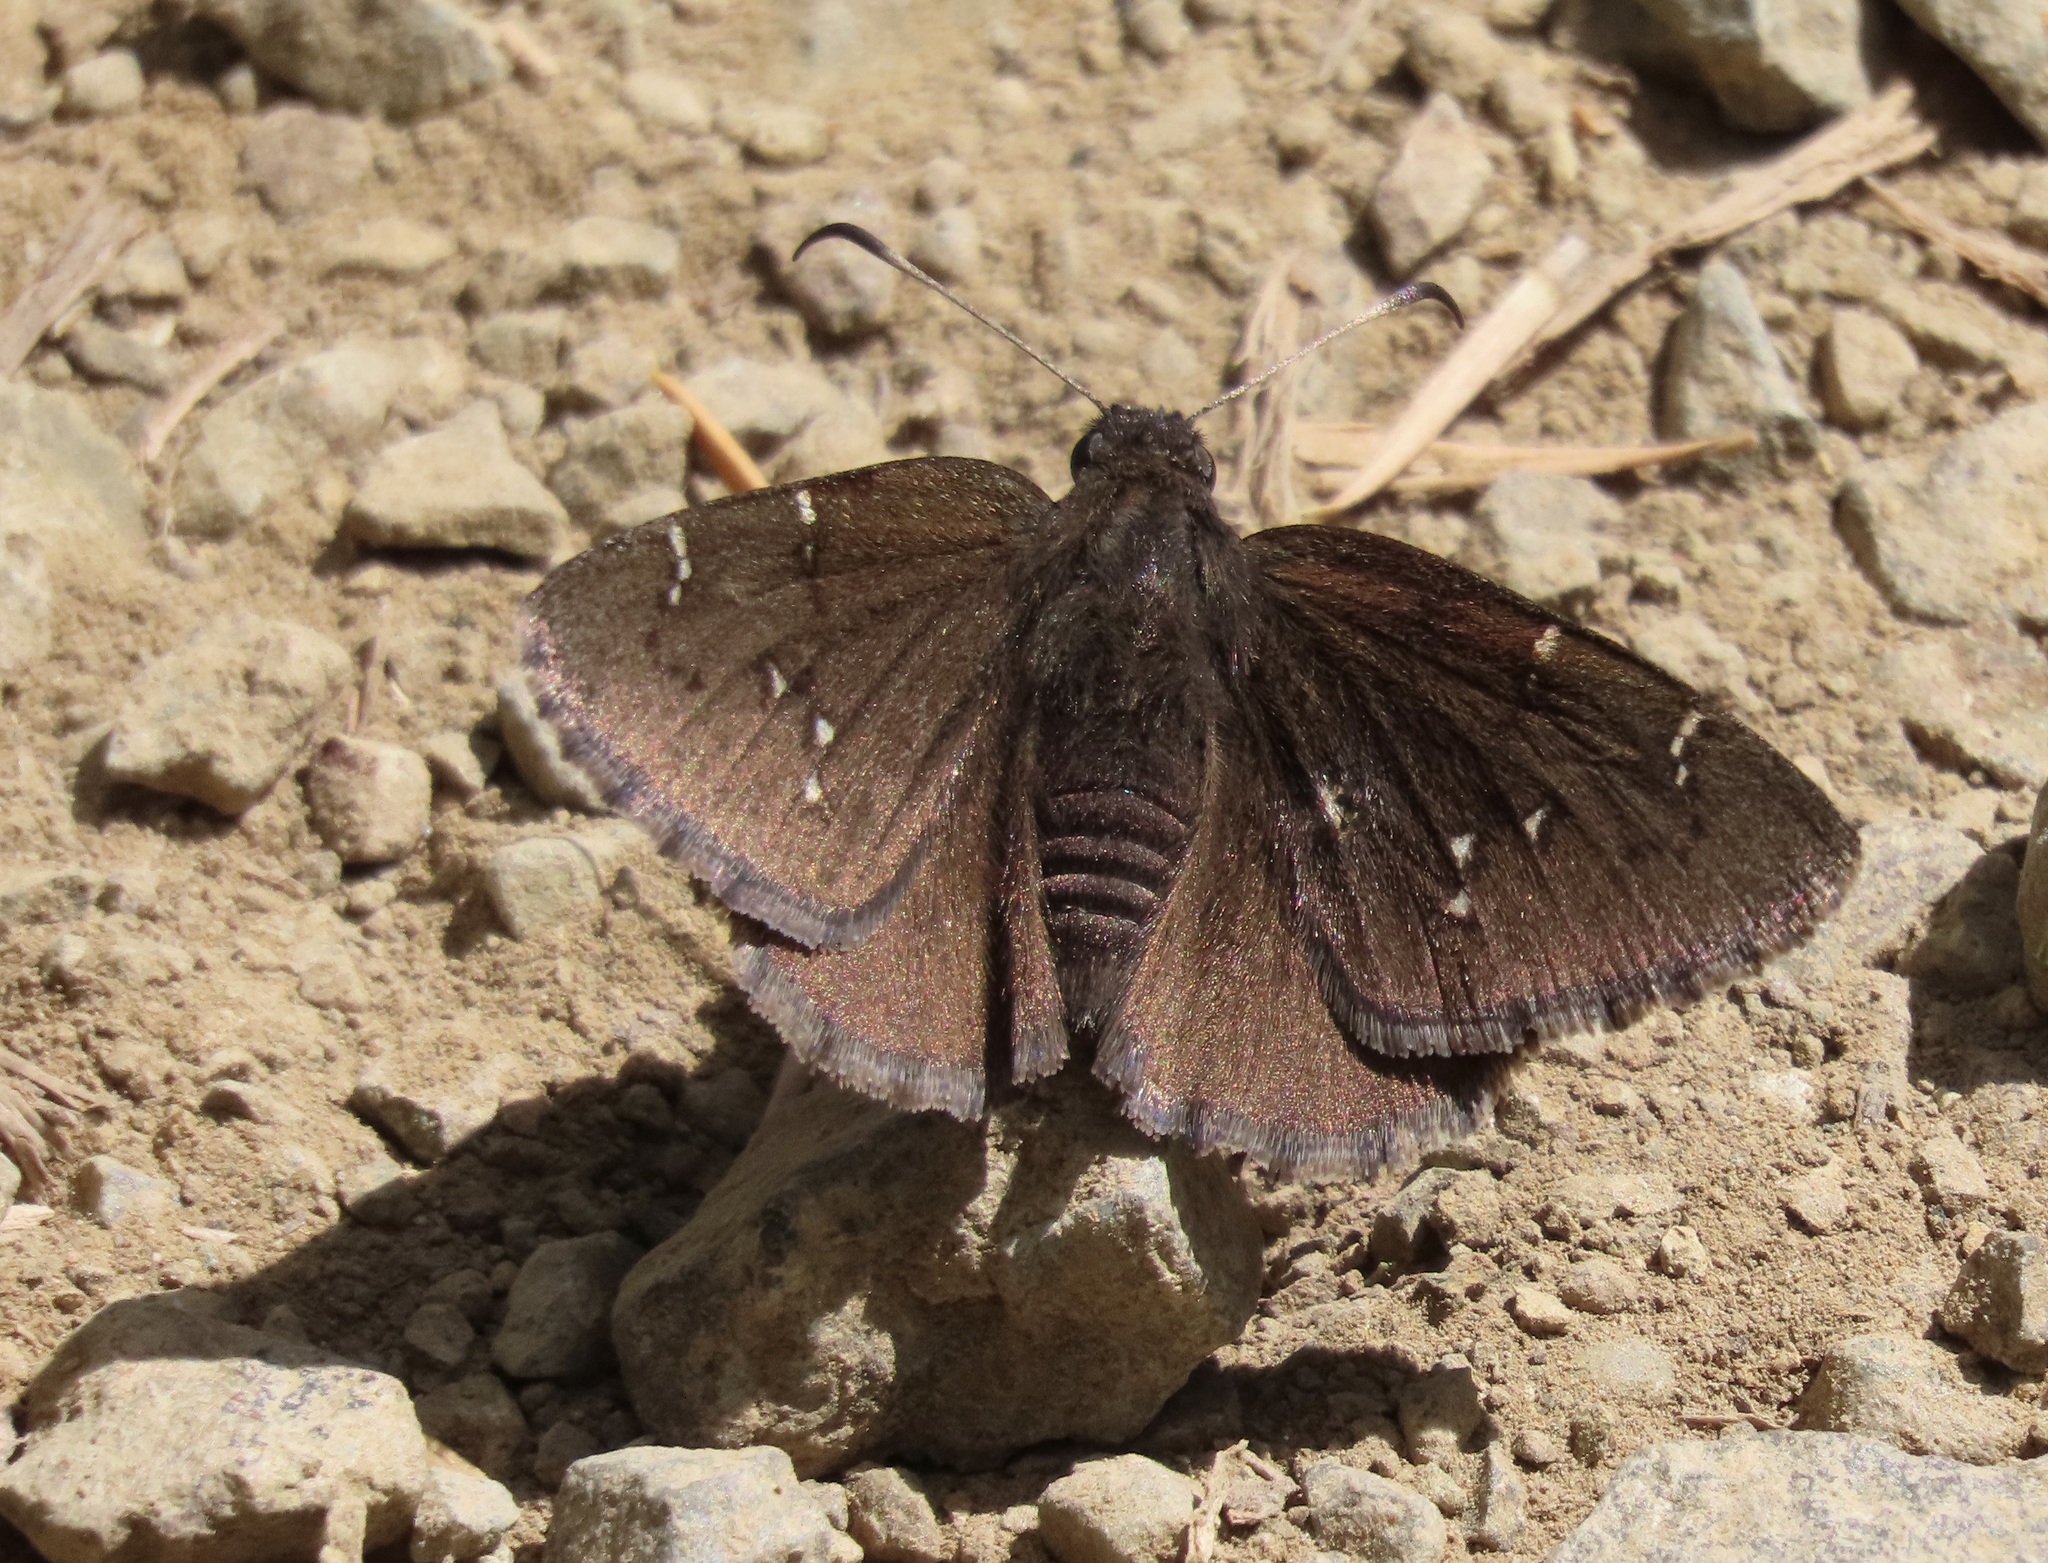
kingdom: Animalia
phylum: Arthropoda
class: Insecta
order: Lepidoptera
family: Hesperiidae
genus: Thorybes
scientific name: Thorybes pylades
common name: Northern cloudywing
